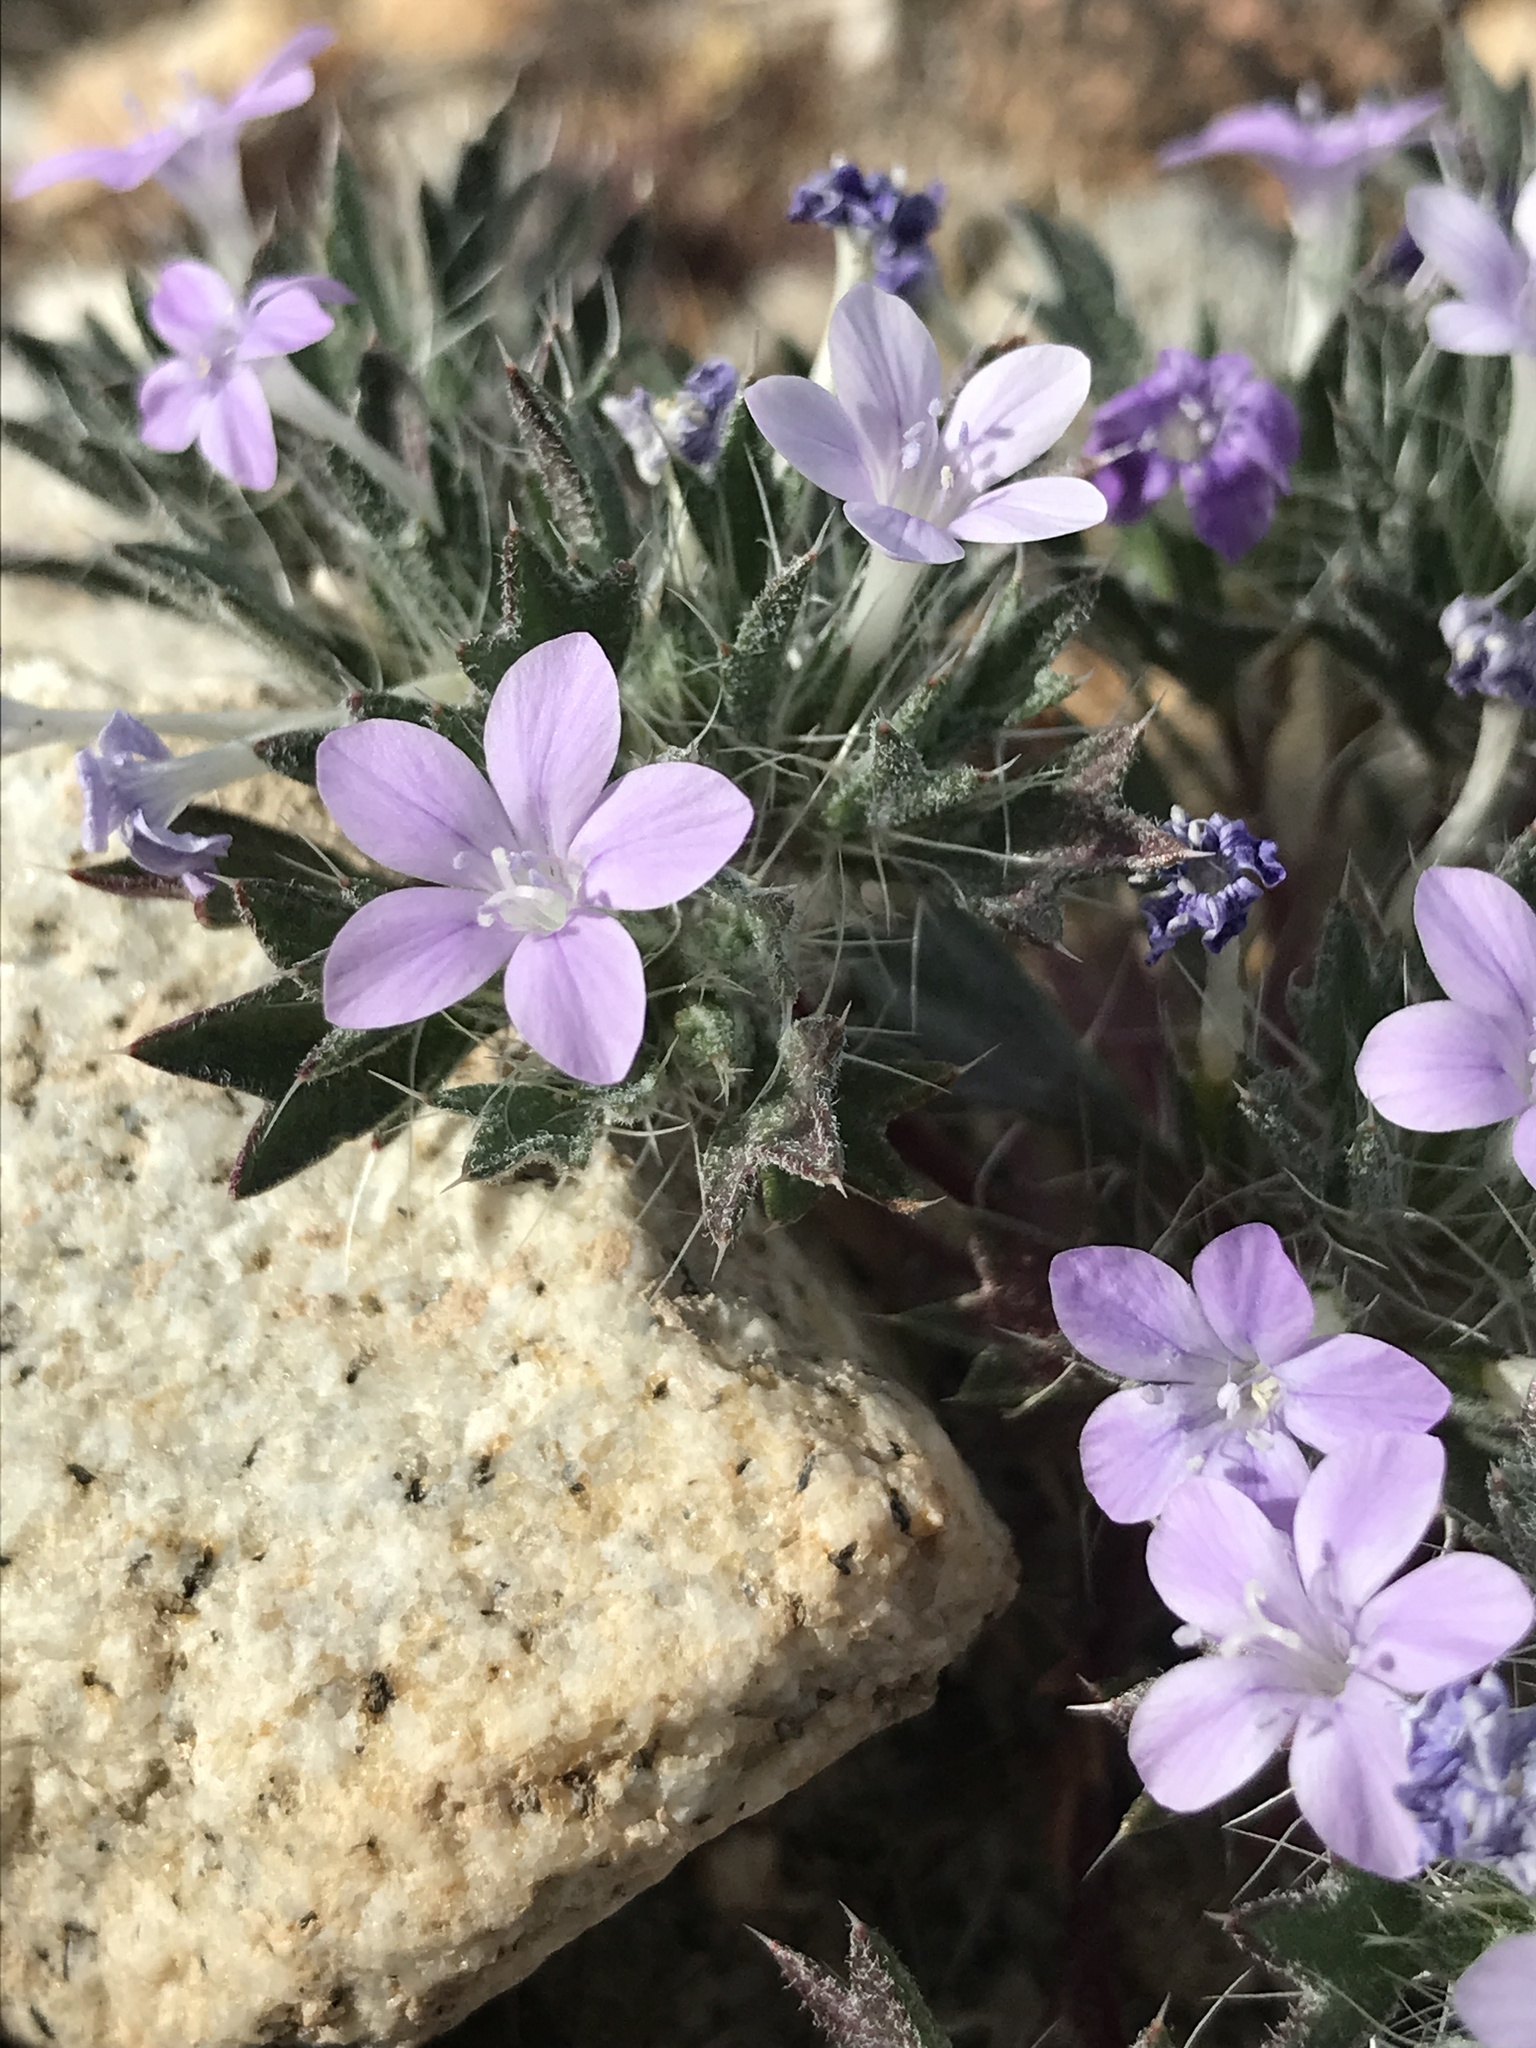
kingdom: Plantae
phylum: Tracheophyta
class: Magnoliopsida
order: Ericales
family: Polemoniaceae
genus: Langloisia
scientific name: Langloisia setosissima
